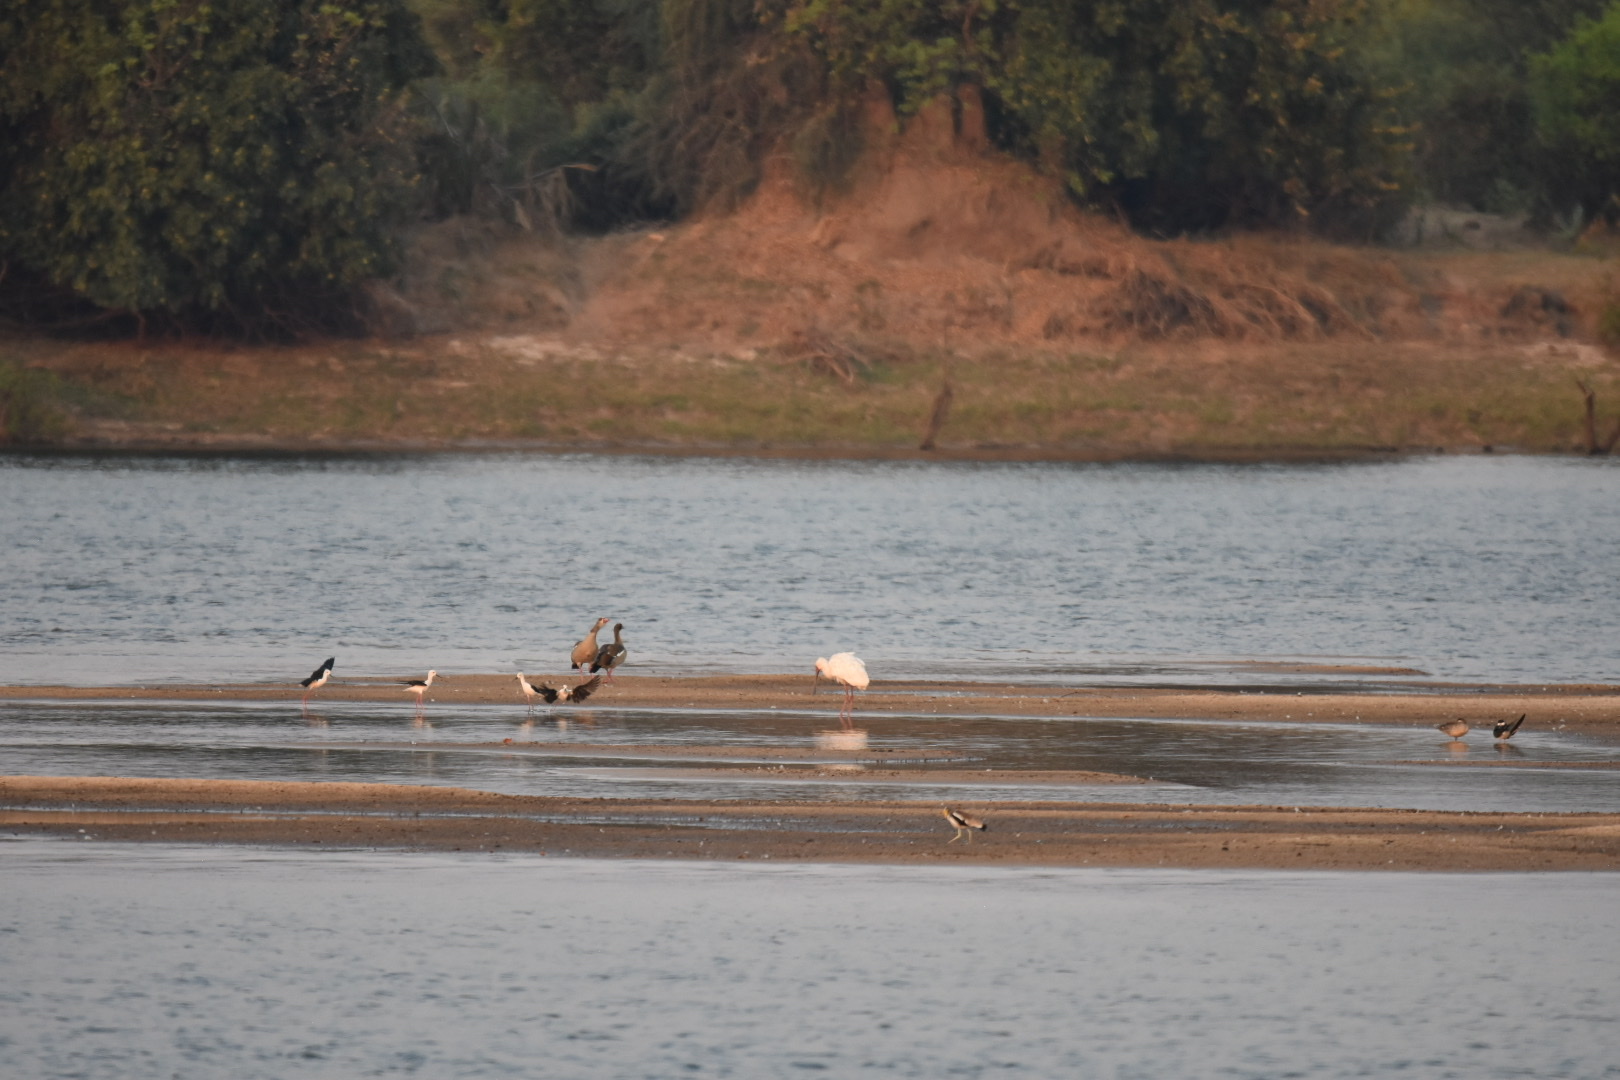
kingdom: Animalia
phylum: Chordata
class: Aves
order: Pelecaniformes
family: Threskiornithidae
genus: Platalea
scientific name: Platalea alba
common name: African spoonbill
